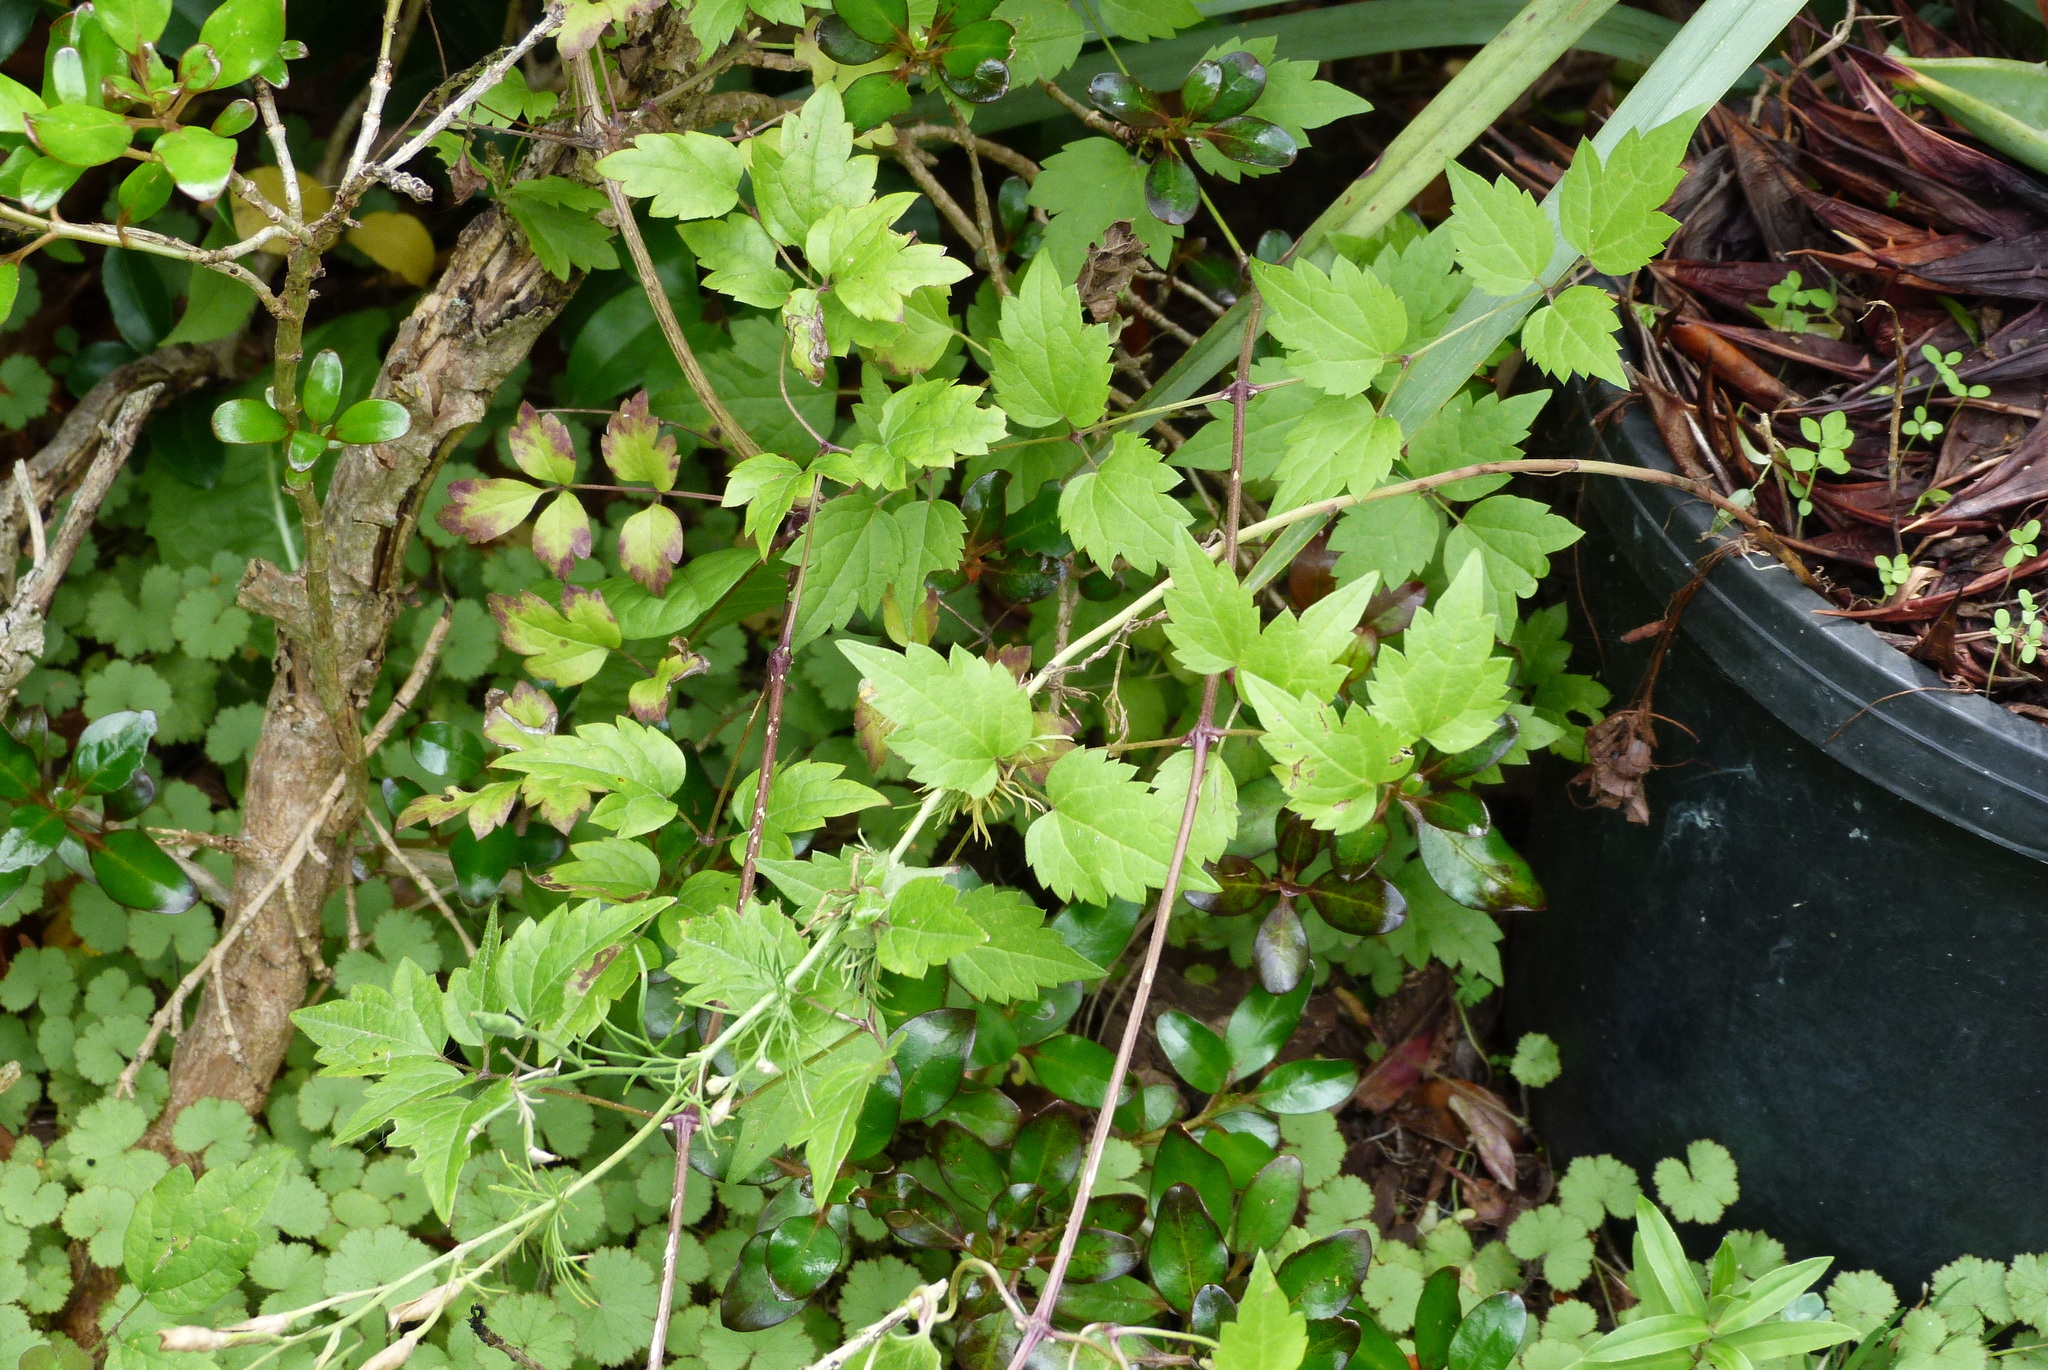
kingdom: Plantae
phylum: Tracheophyta
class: Magnoliopsida
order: Ranunculales
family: Ranunculaceae
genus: Clematis
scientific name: Clematis vitalba
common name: Evergreen clematis
